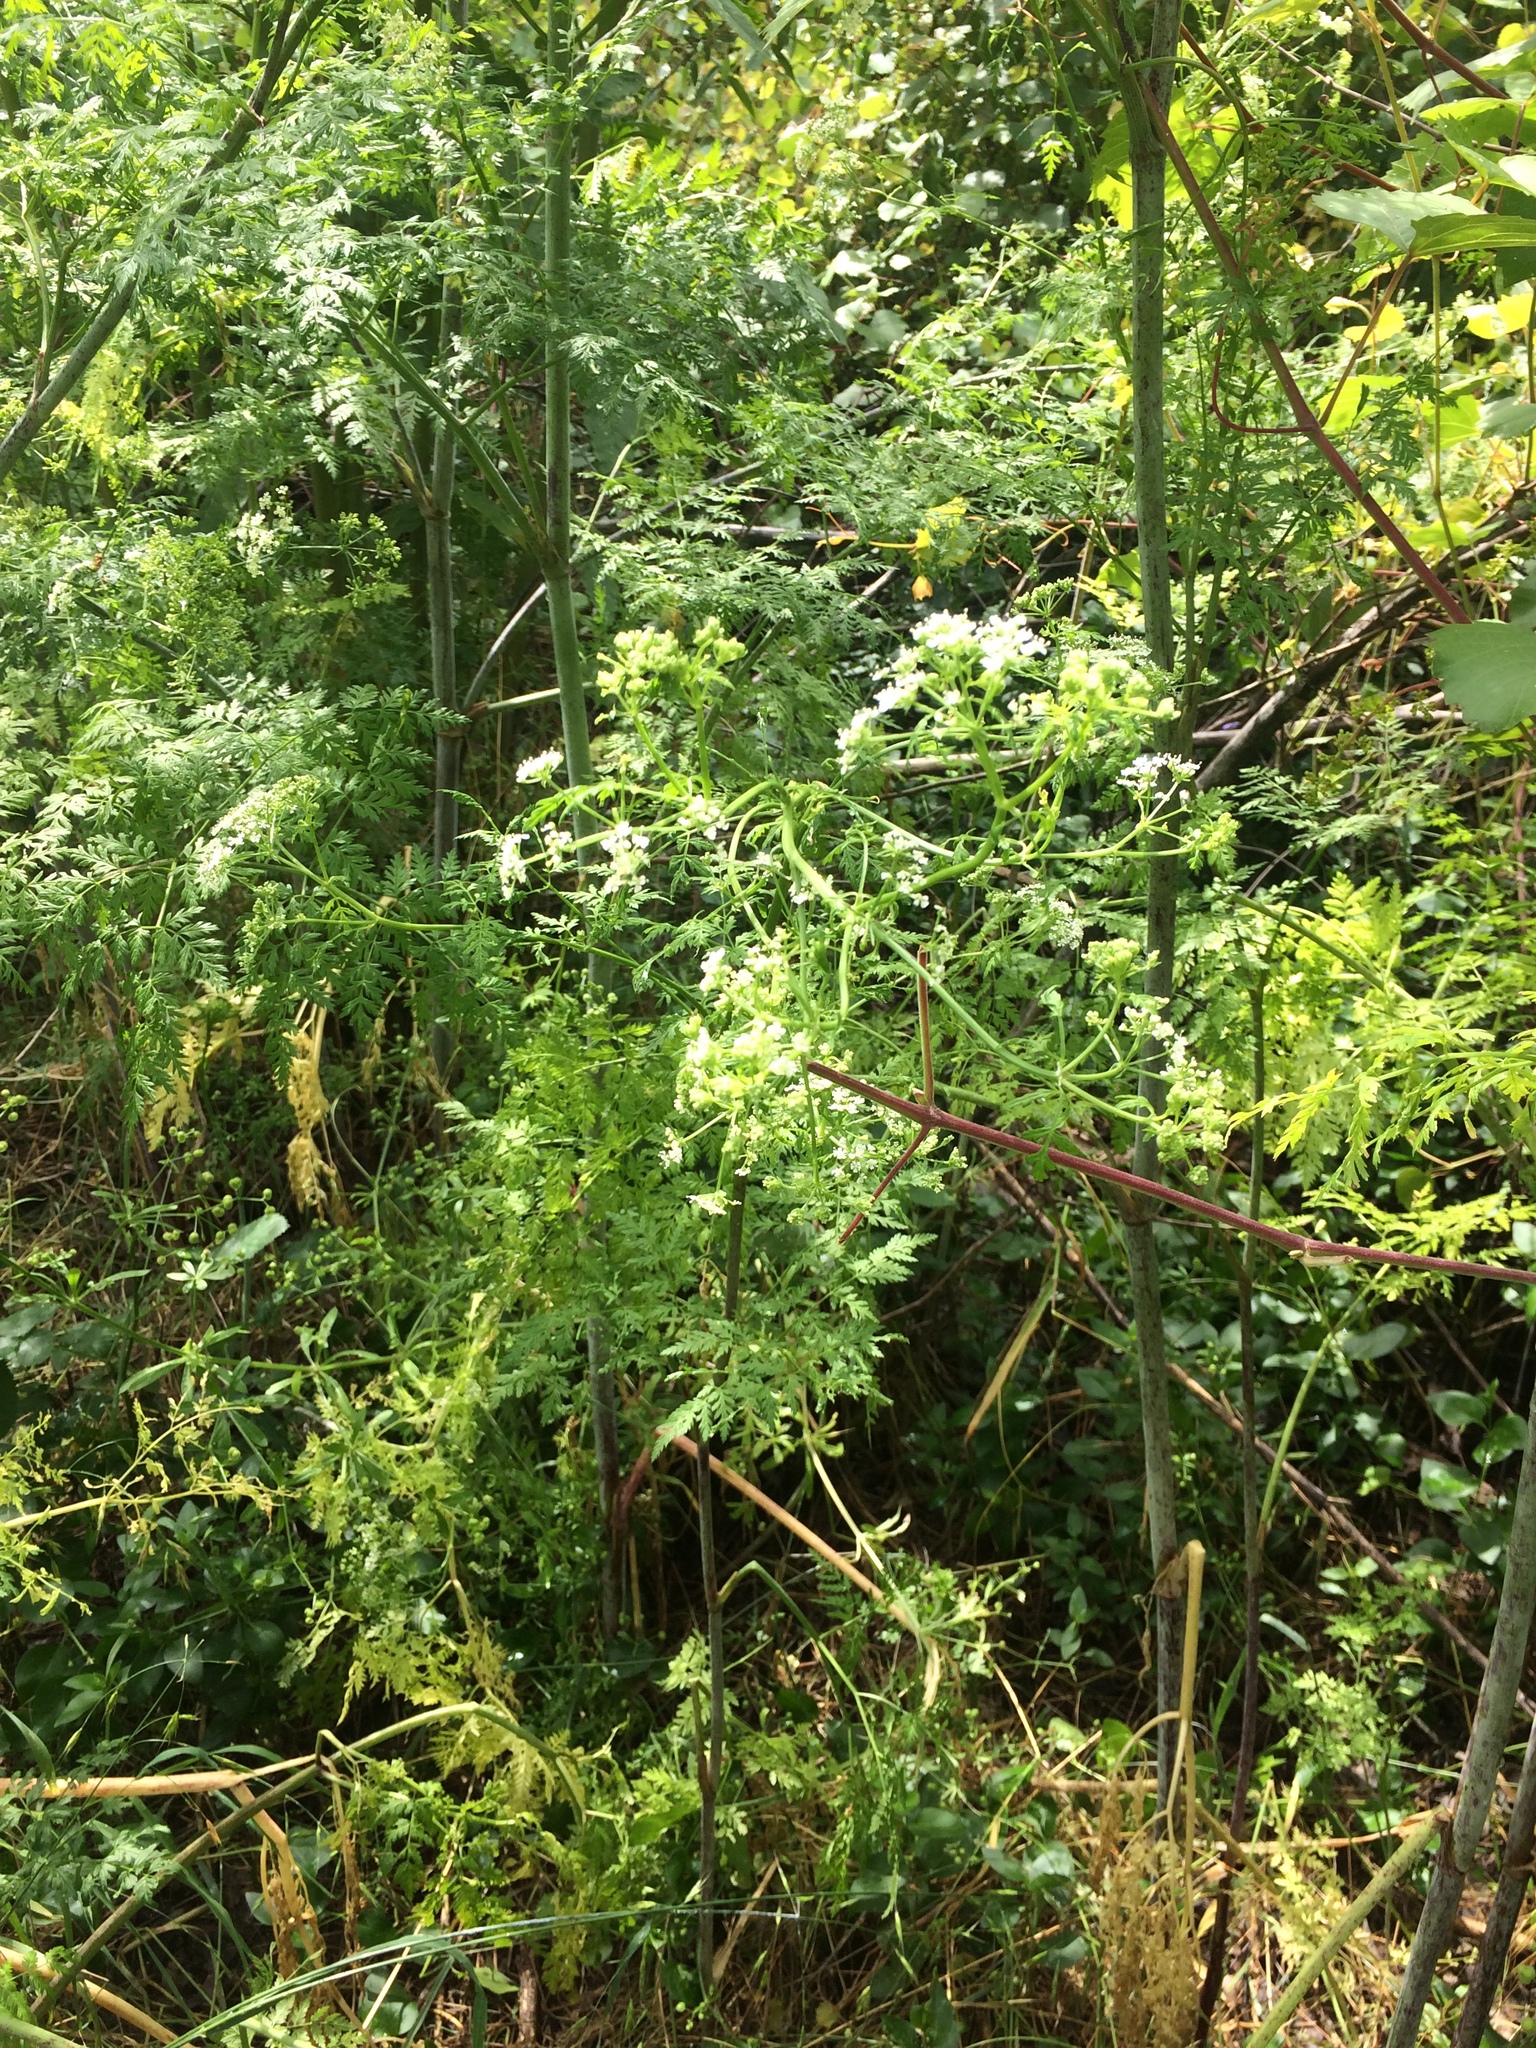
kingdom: Plantae
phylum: Tracheophyta
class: Magnoliopsida
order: Apiales
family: Apiaceae
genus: Conium
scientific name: Conium maculatum
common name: Hemlock
